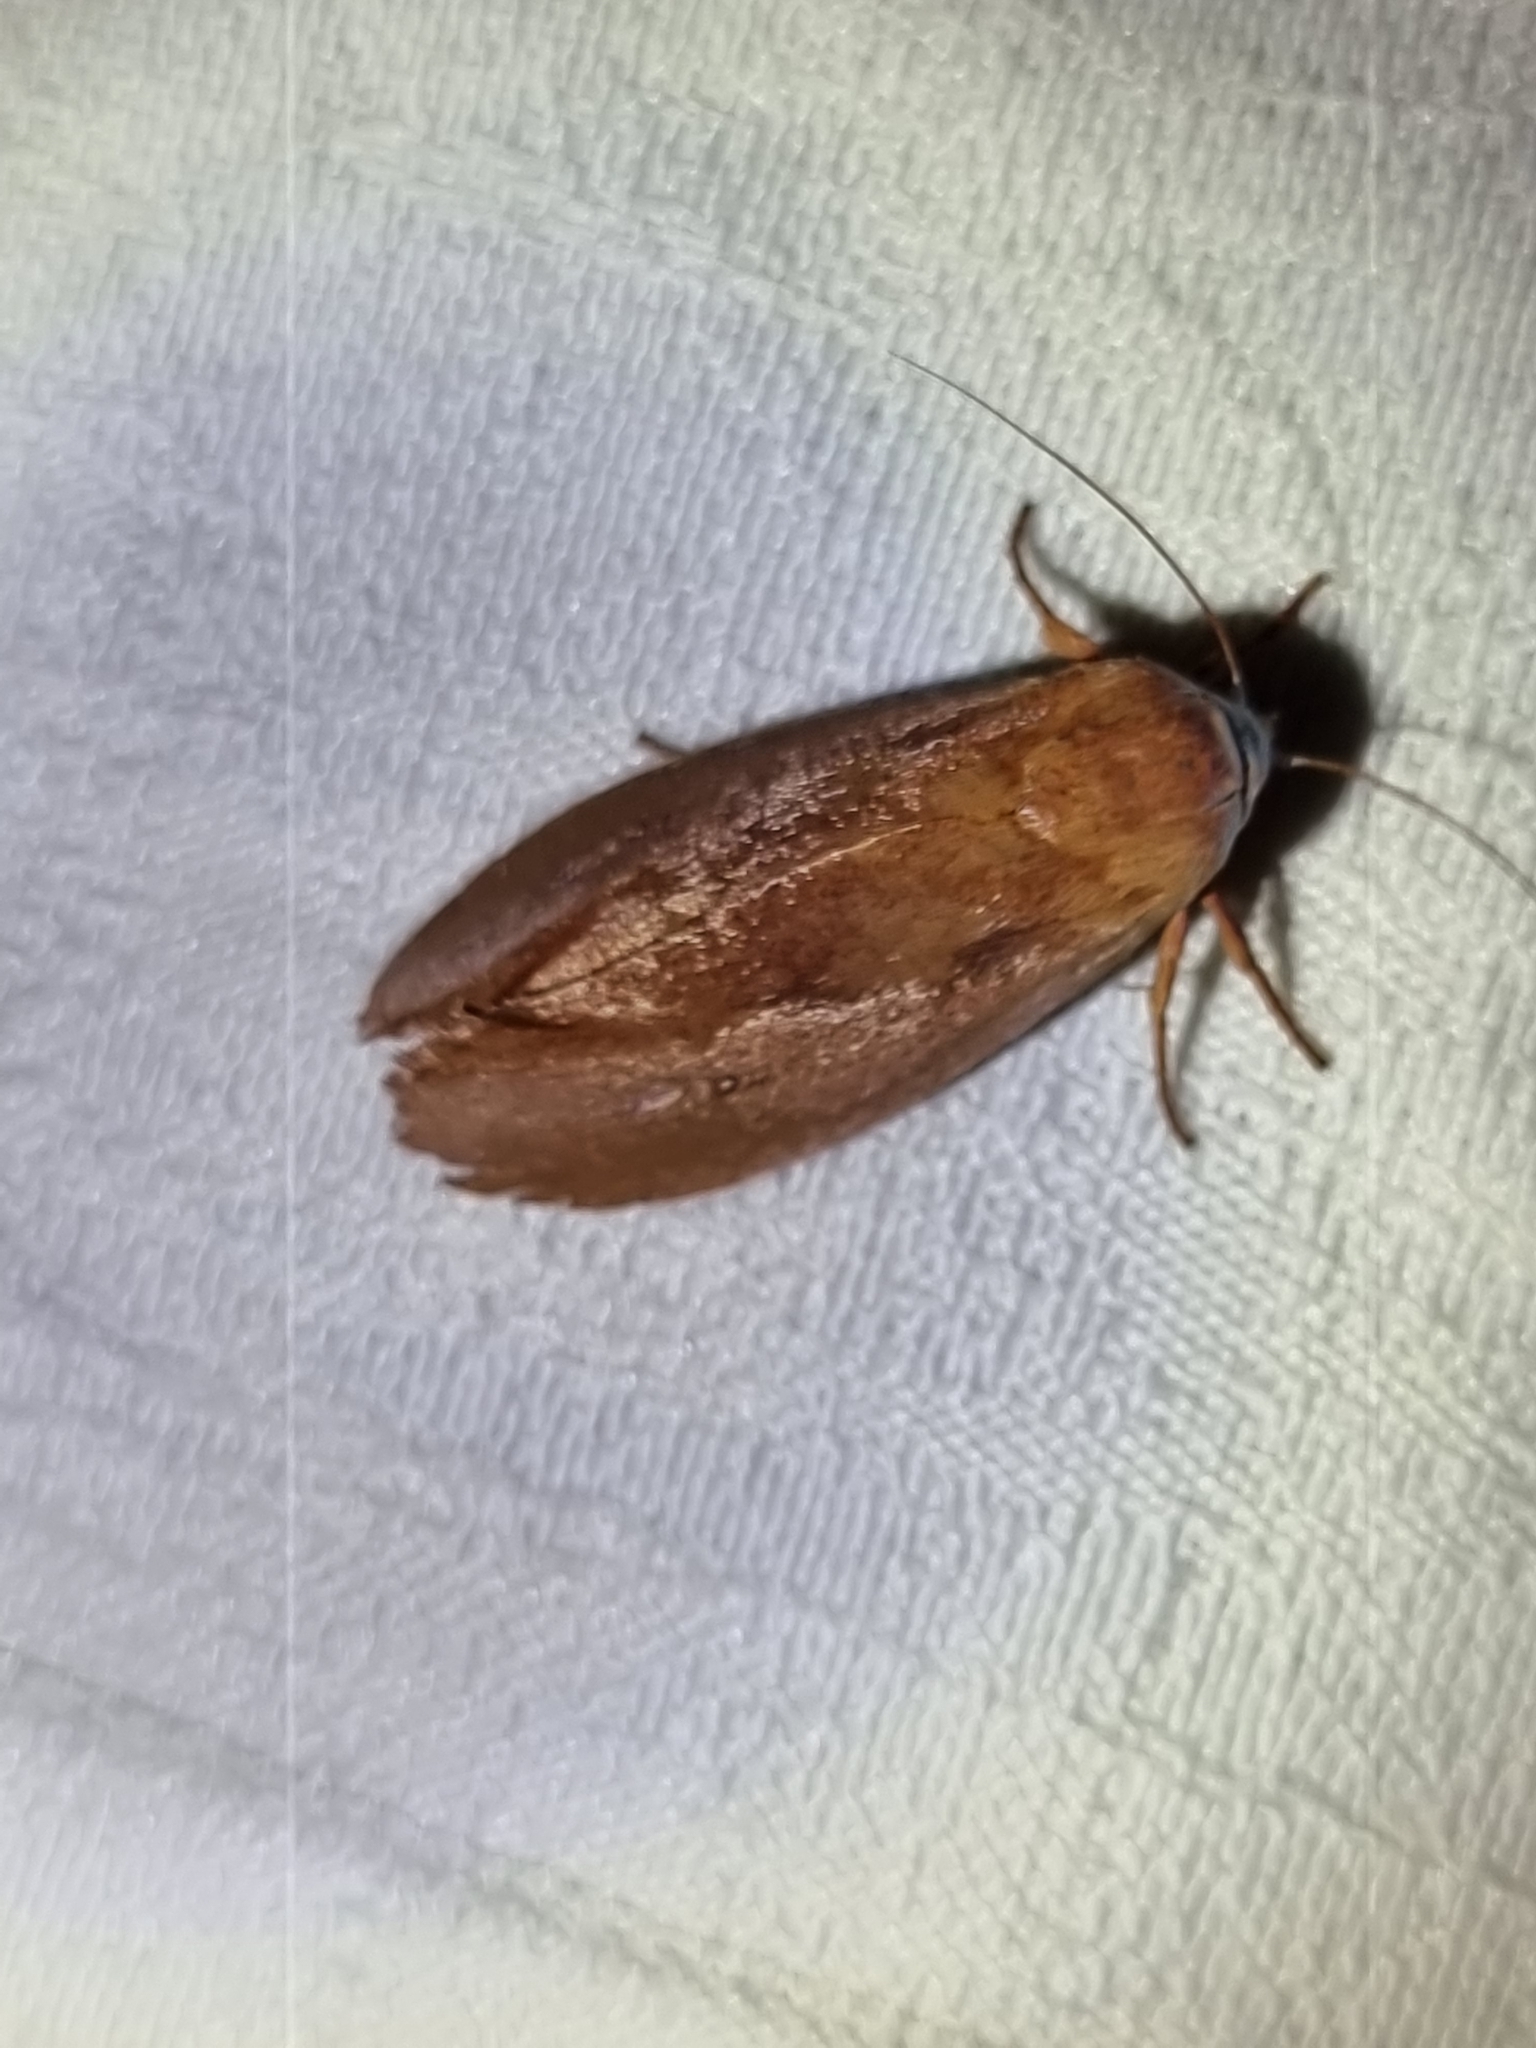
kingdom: Animalia
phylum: Arthropoda
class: Insecta
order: Lepidoptera
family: Xyloryctidae
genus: Cryptophasa
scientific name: Cryptophasa rubescens
